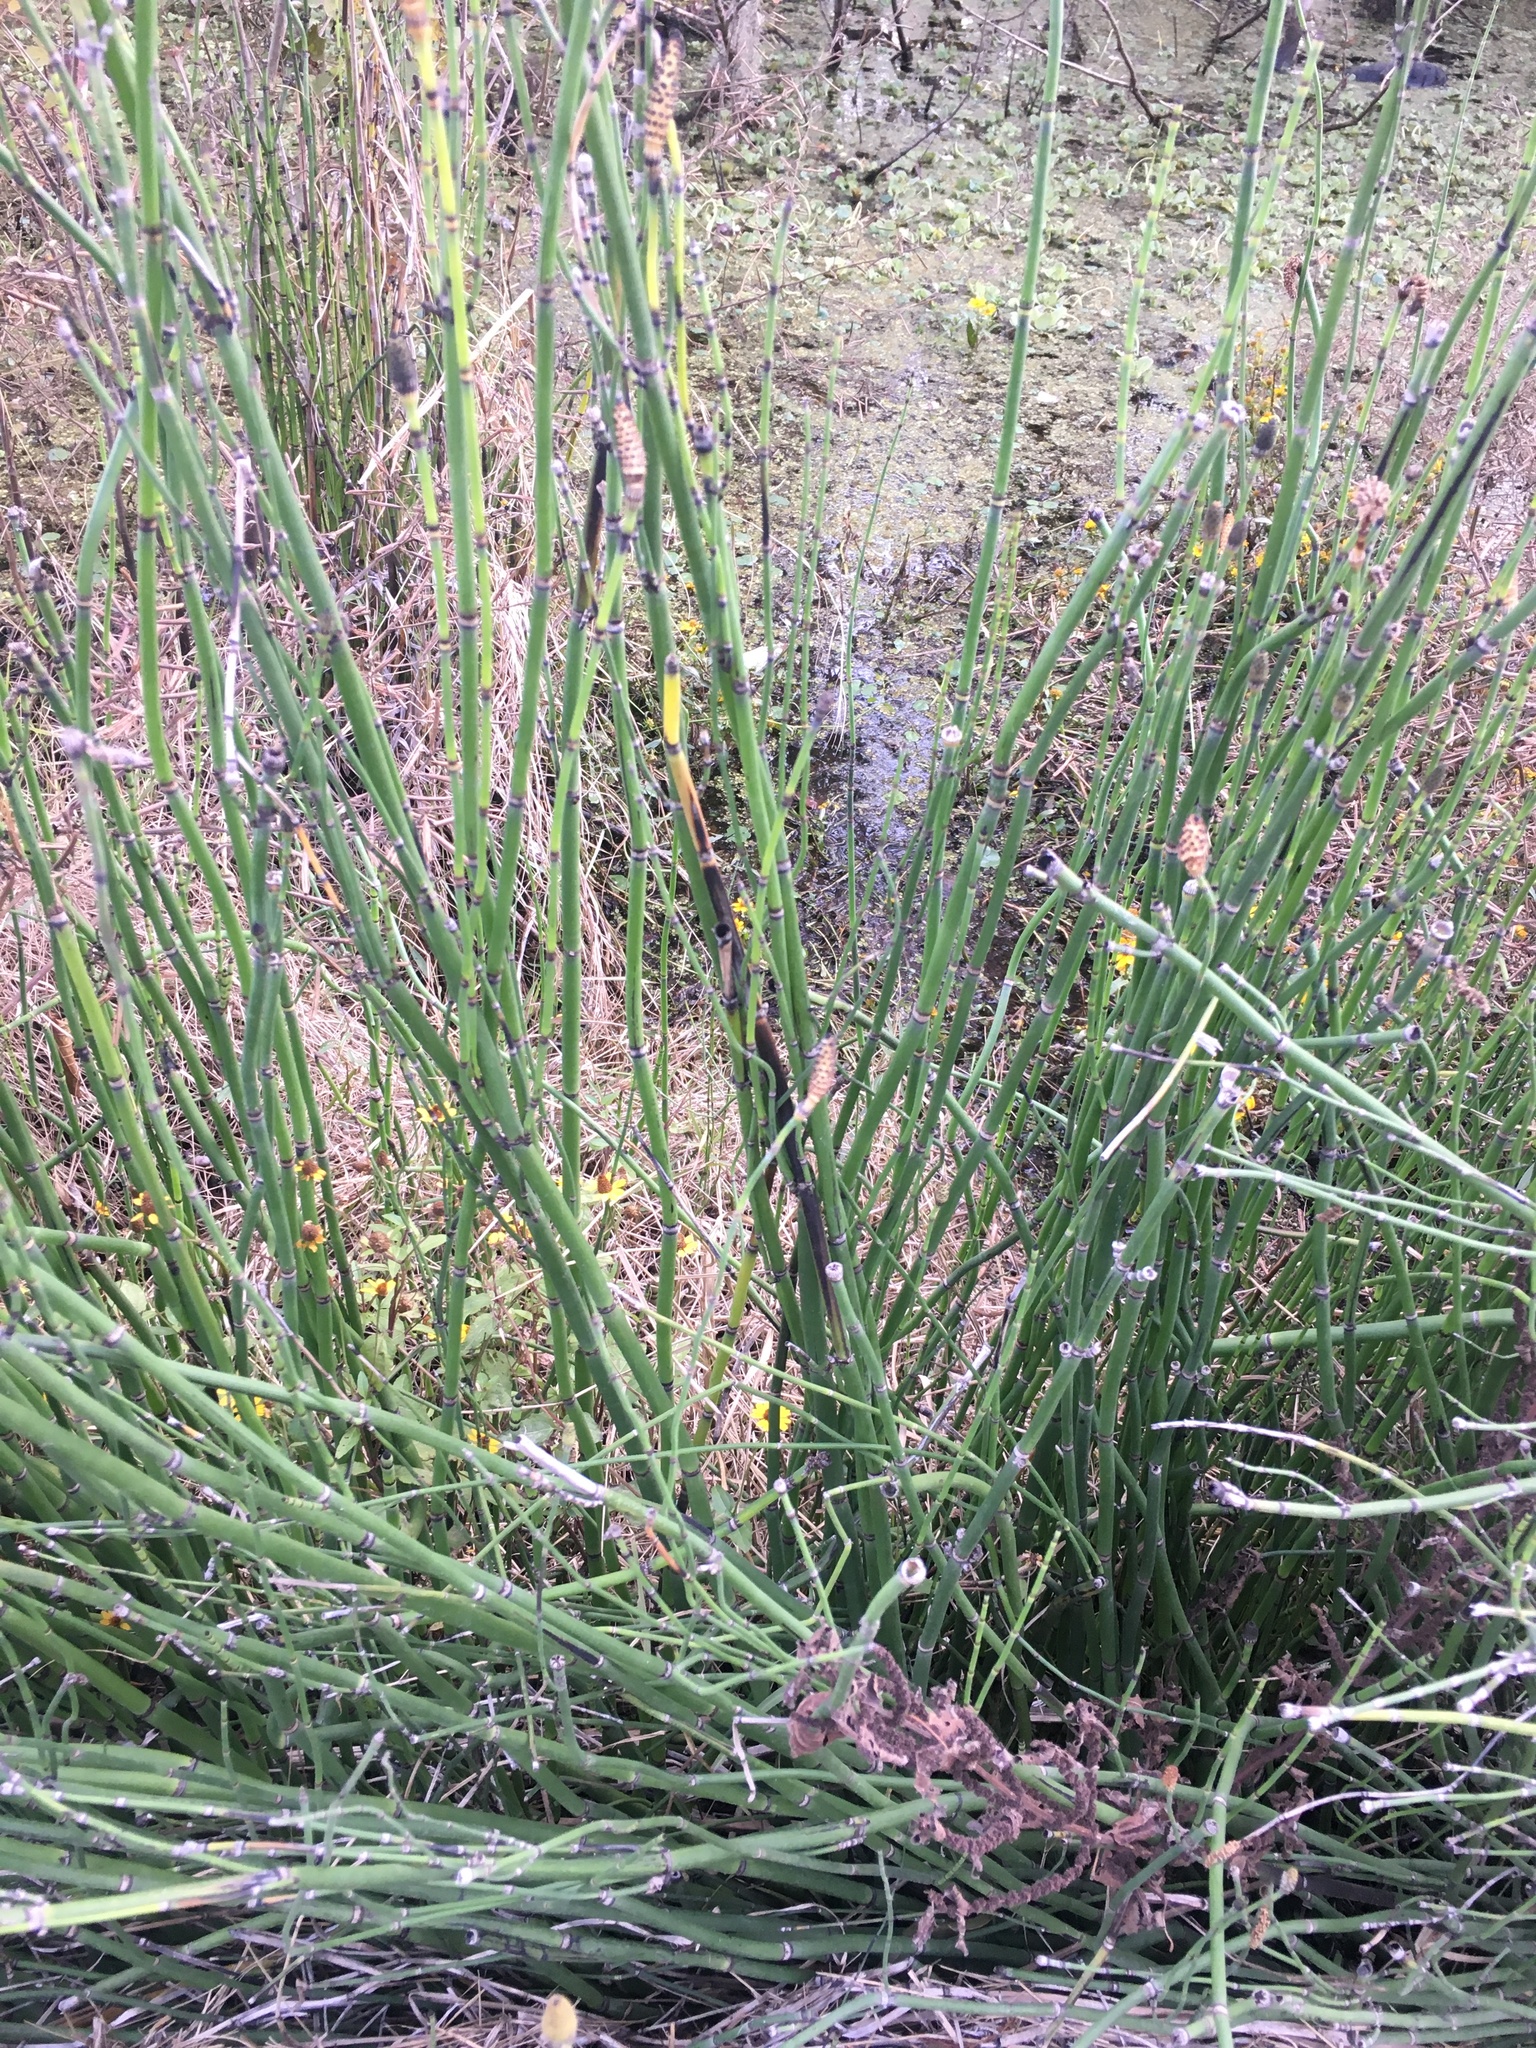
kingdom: Plantae
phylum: Tracheophyta
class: Polypodiopsida
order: Equisetales
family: Equisetaceae
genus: Equisetum
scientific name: Equisetum praealtum
